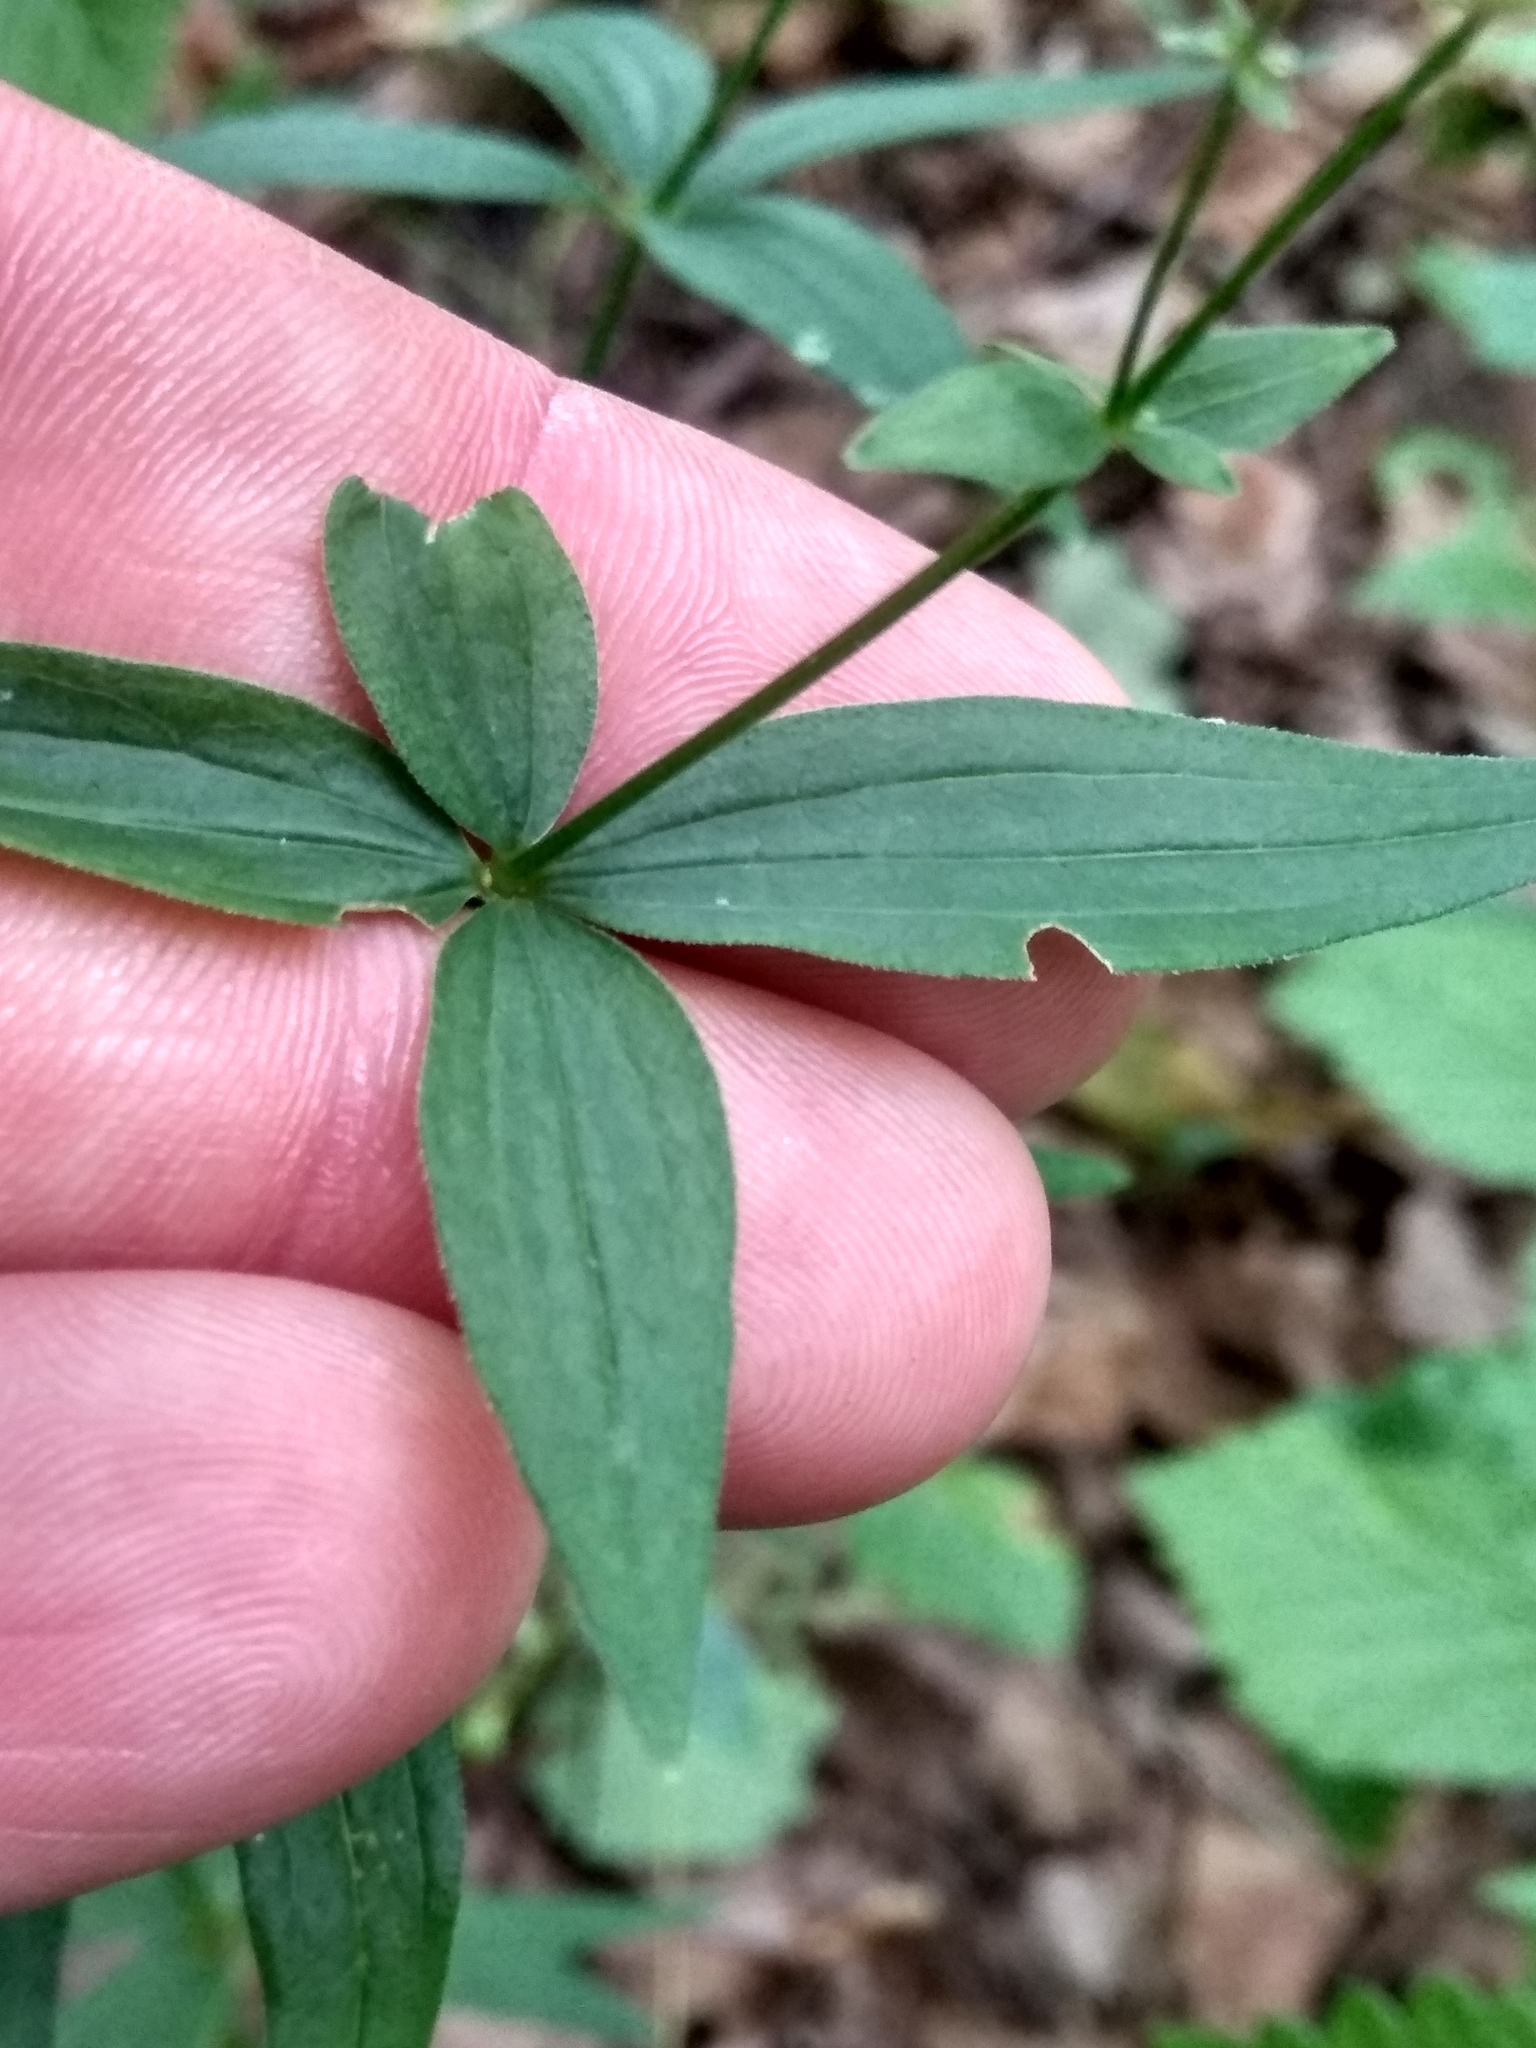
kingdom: Plantae
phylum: Tracheophyta
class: Magnoliopsida
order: Gentianales
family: Rubiaceae
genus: Galium
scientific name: Galium boreale
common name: Northern bedstraw
